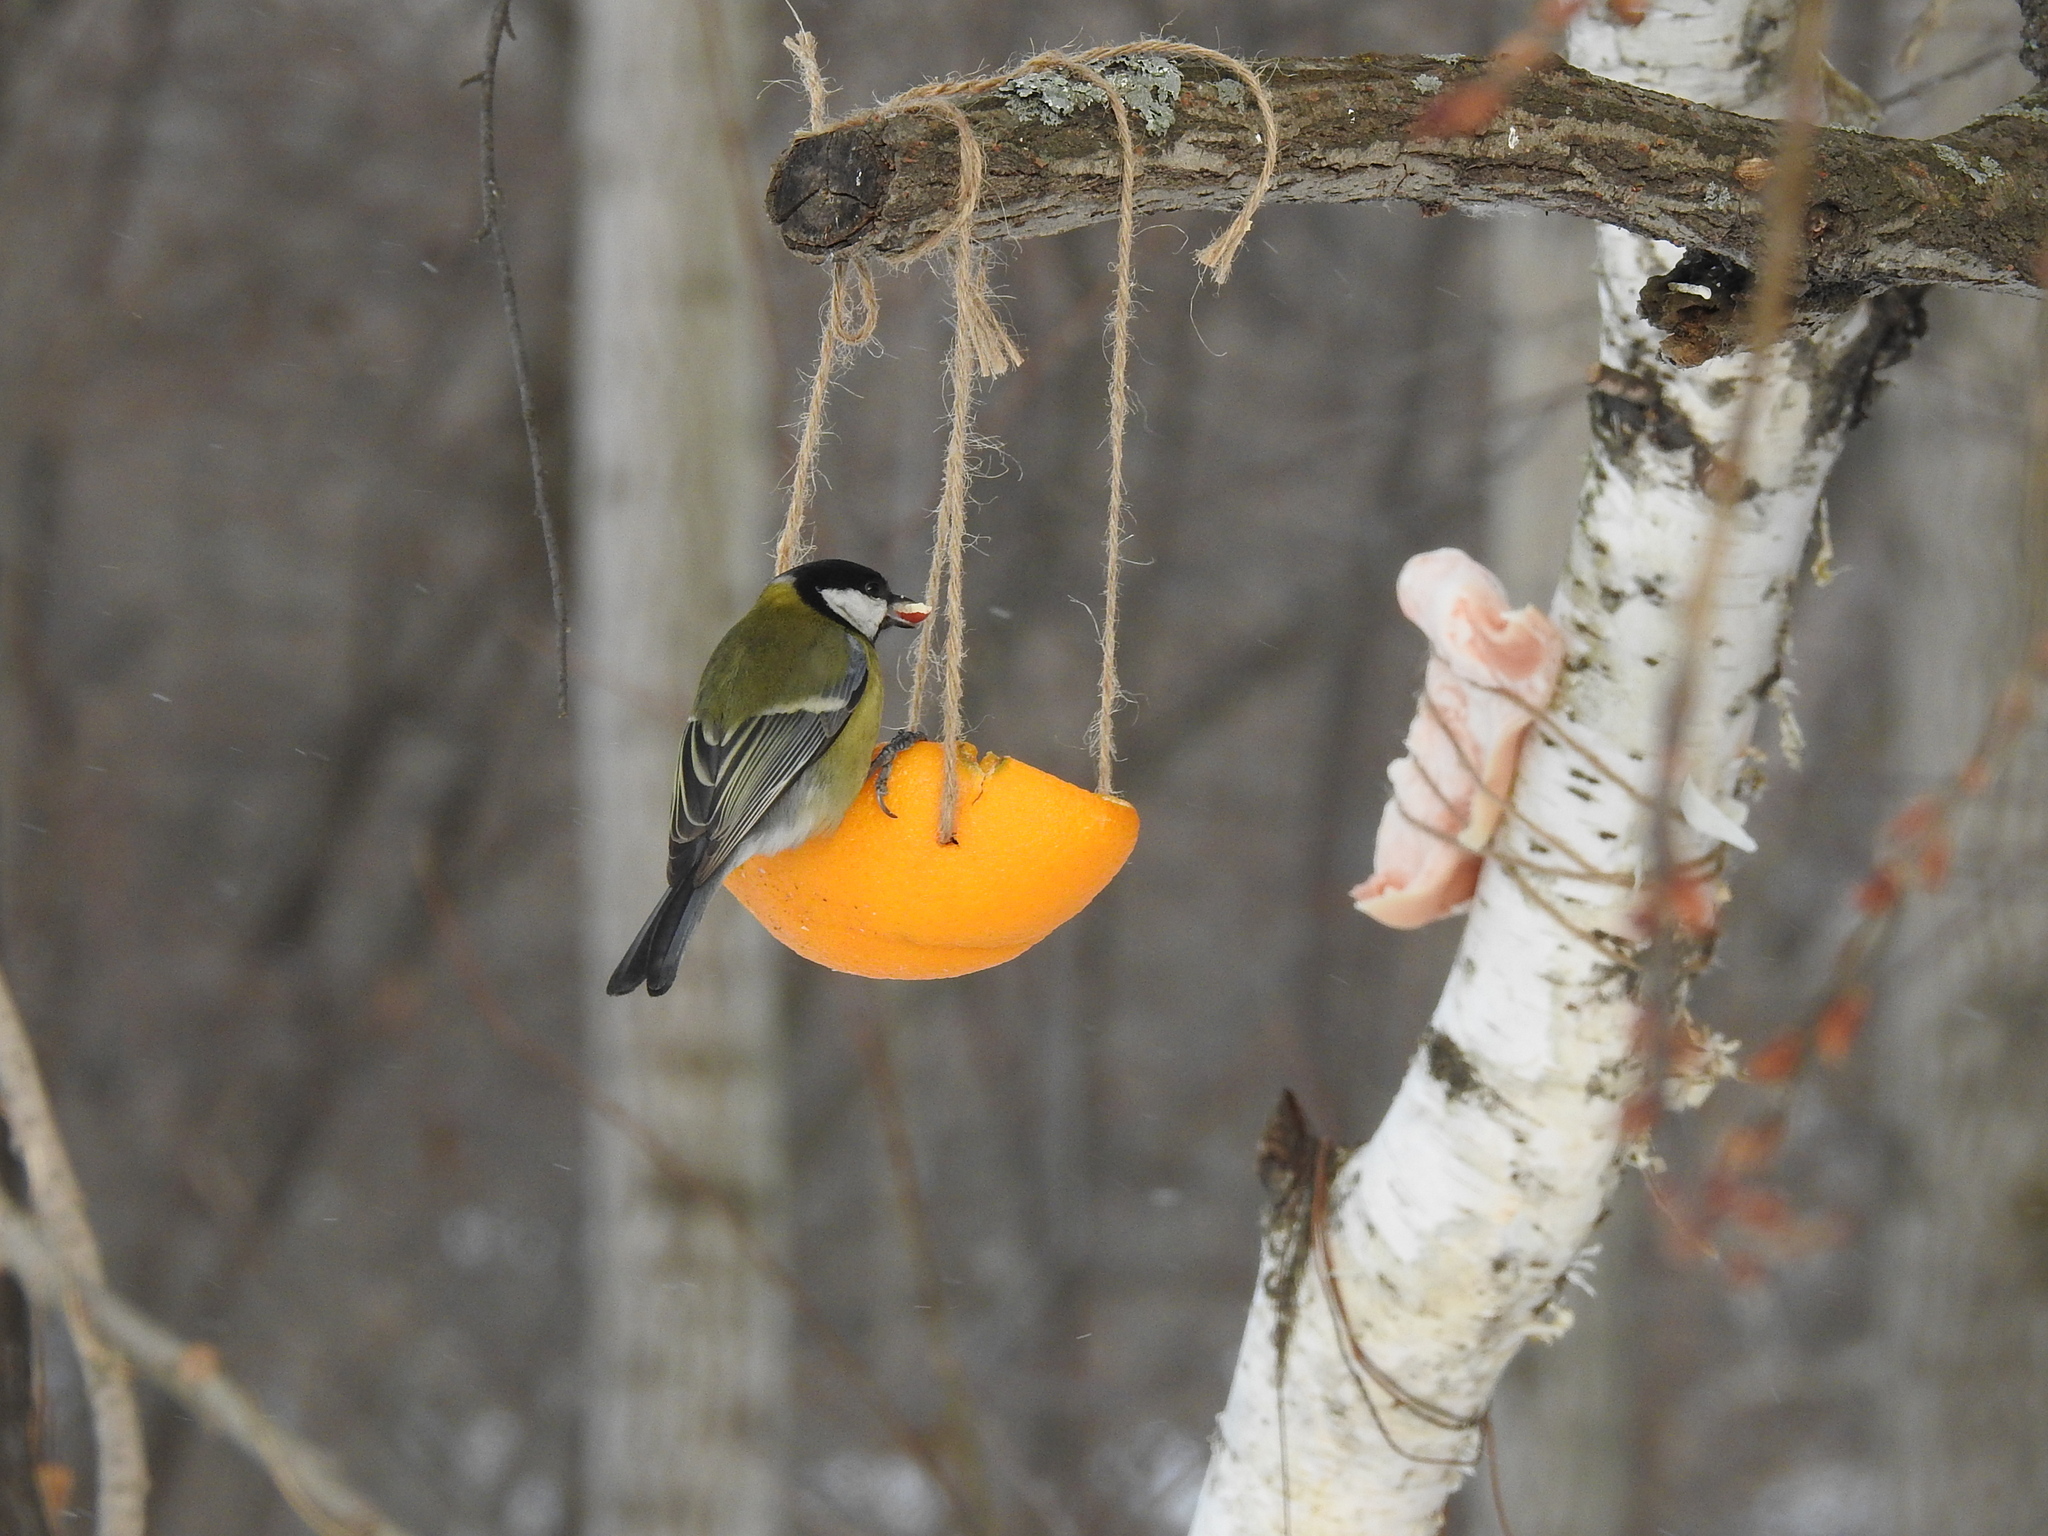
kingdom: Animalia
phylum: Chordata
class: Aves
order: Passeriformes
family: Paridae
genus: Parus
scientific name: Parus major
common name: Great tit
